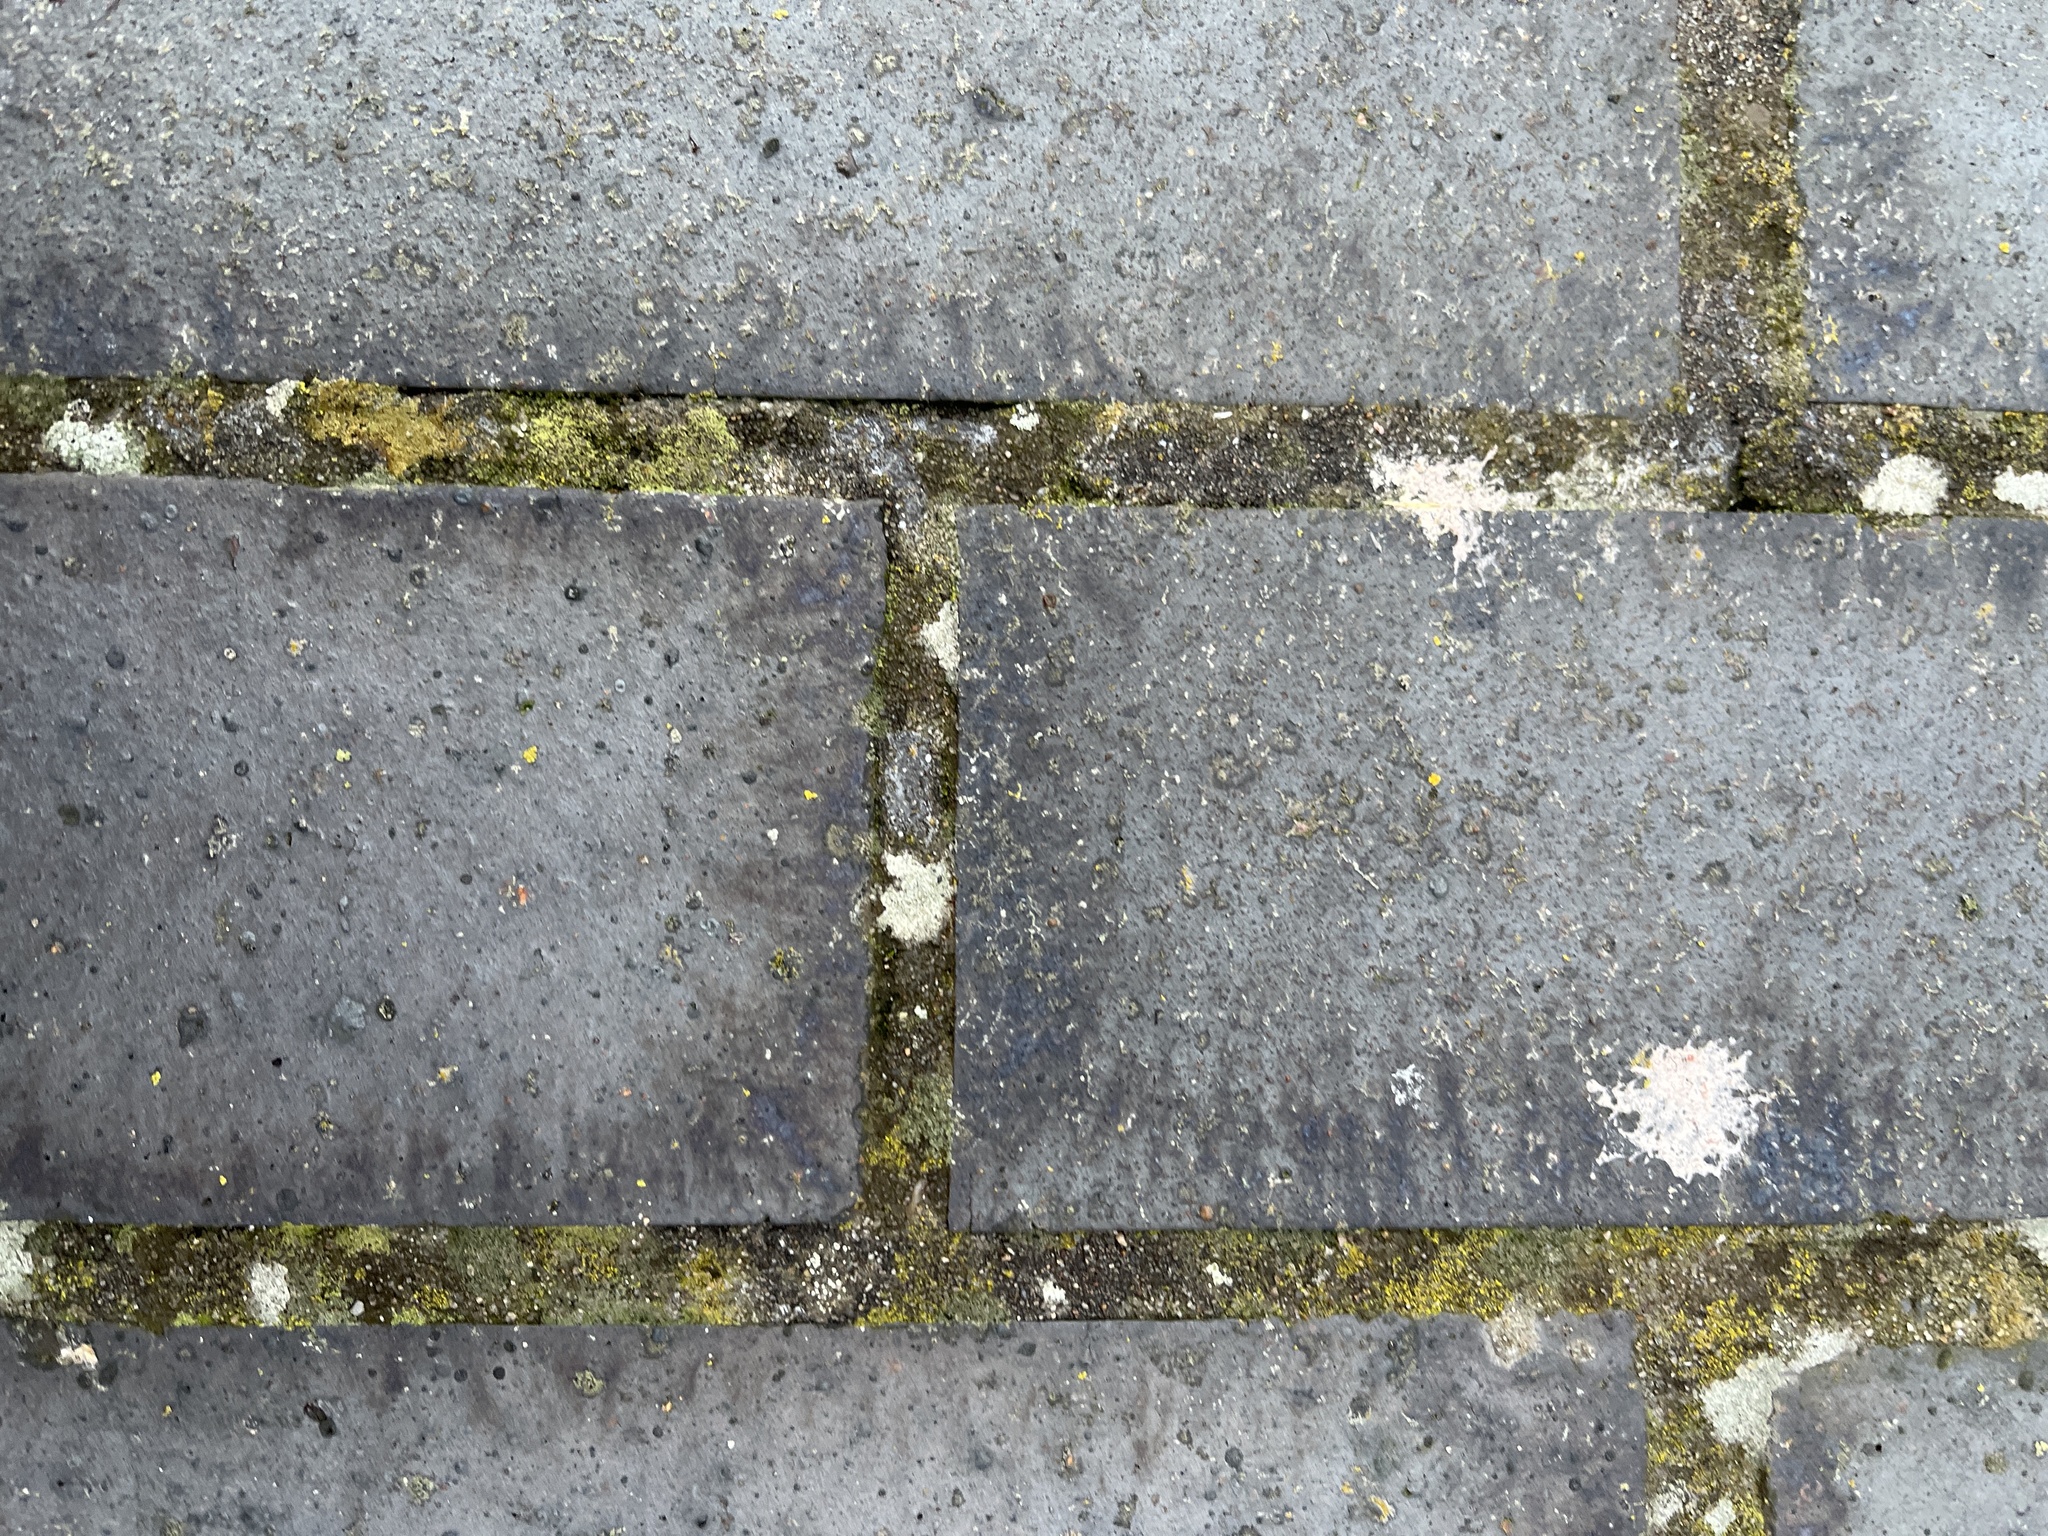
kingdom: Fungi
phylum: Ascomycota
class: Lecanoromycetes
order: Lecanorales
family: Lecanoraceae
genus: Polyozosia
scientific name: Polyozosia albescens
